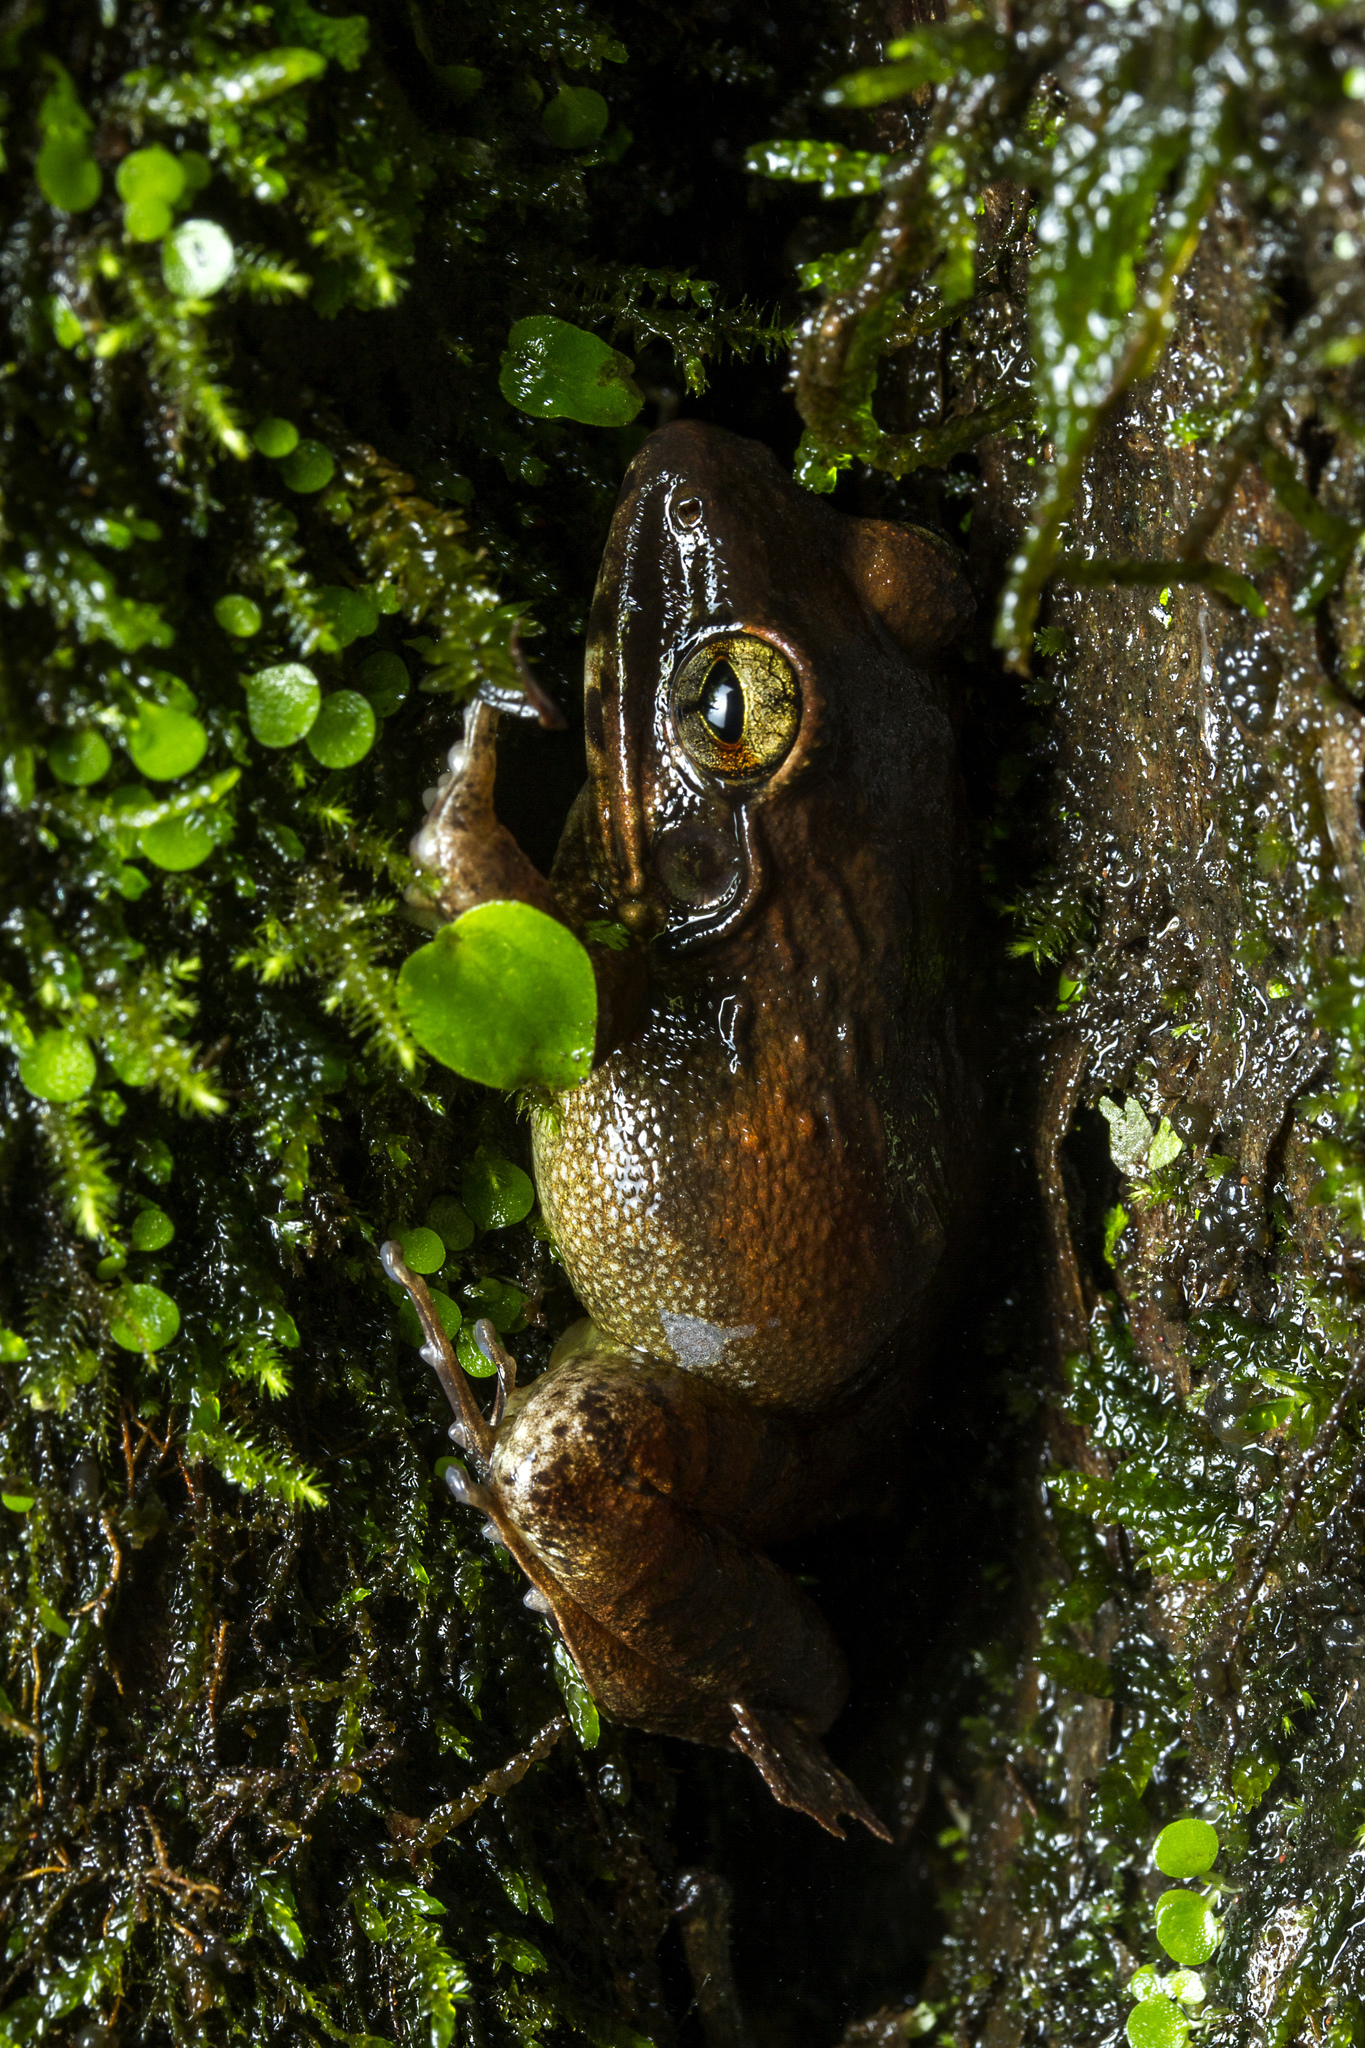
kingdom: Animalia
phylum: Chordata
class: Amphibia
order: Anura
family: Ranixalidae
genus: Indirana
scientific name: Indirana chiravasi
